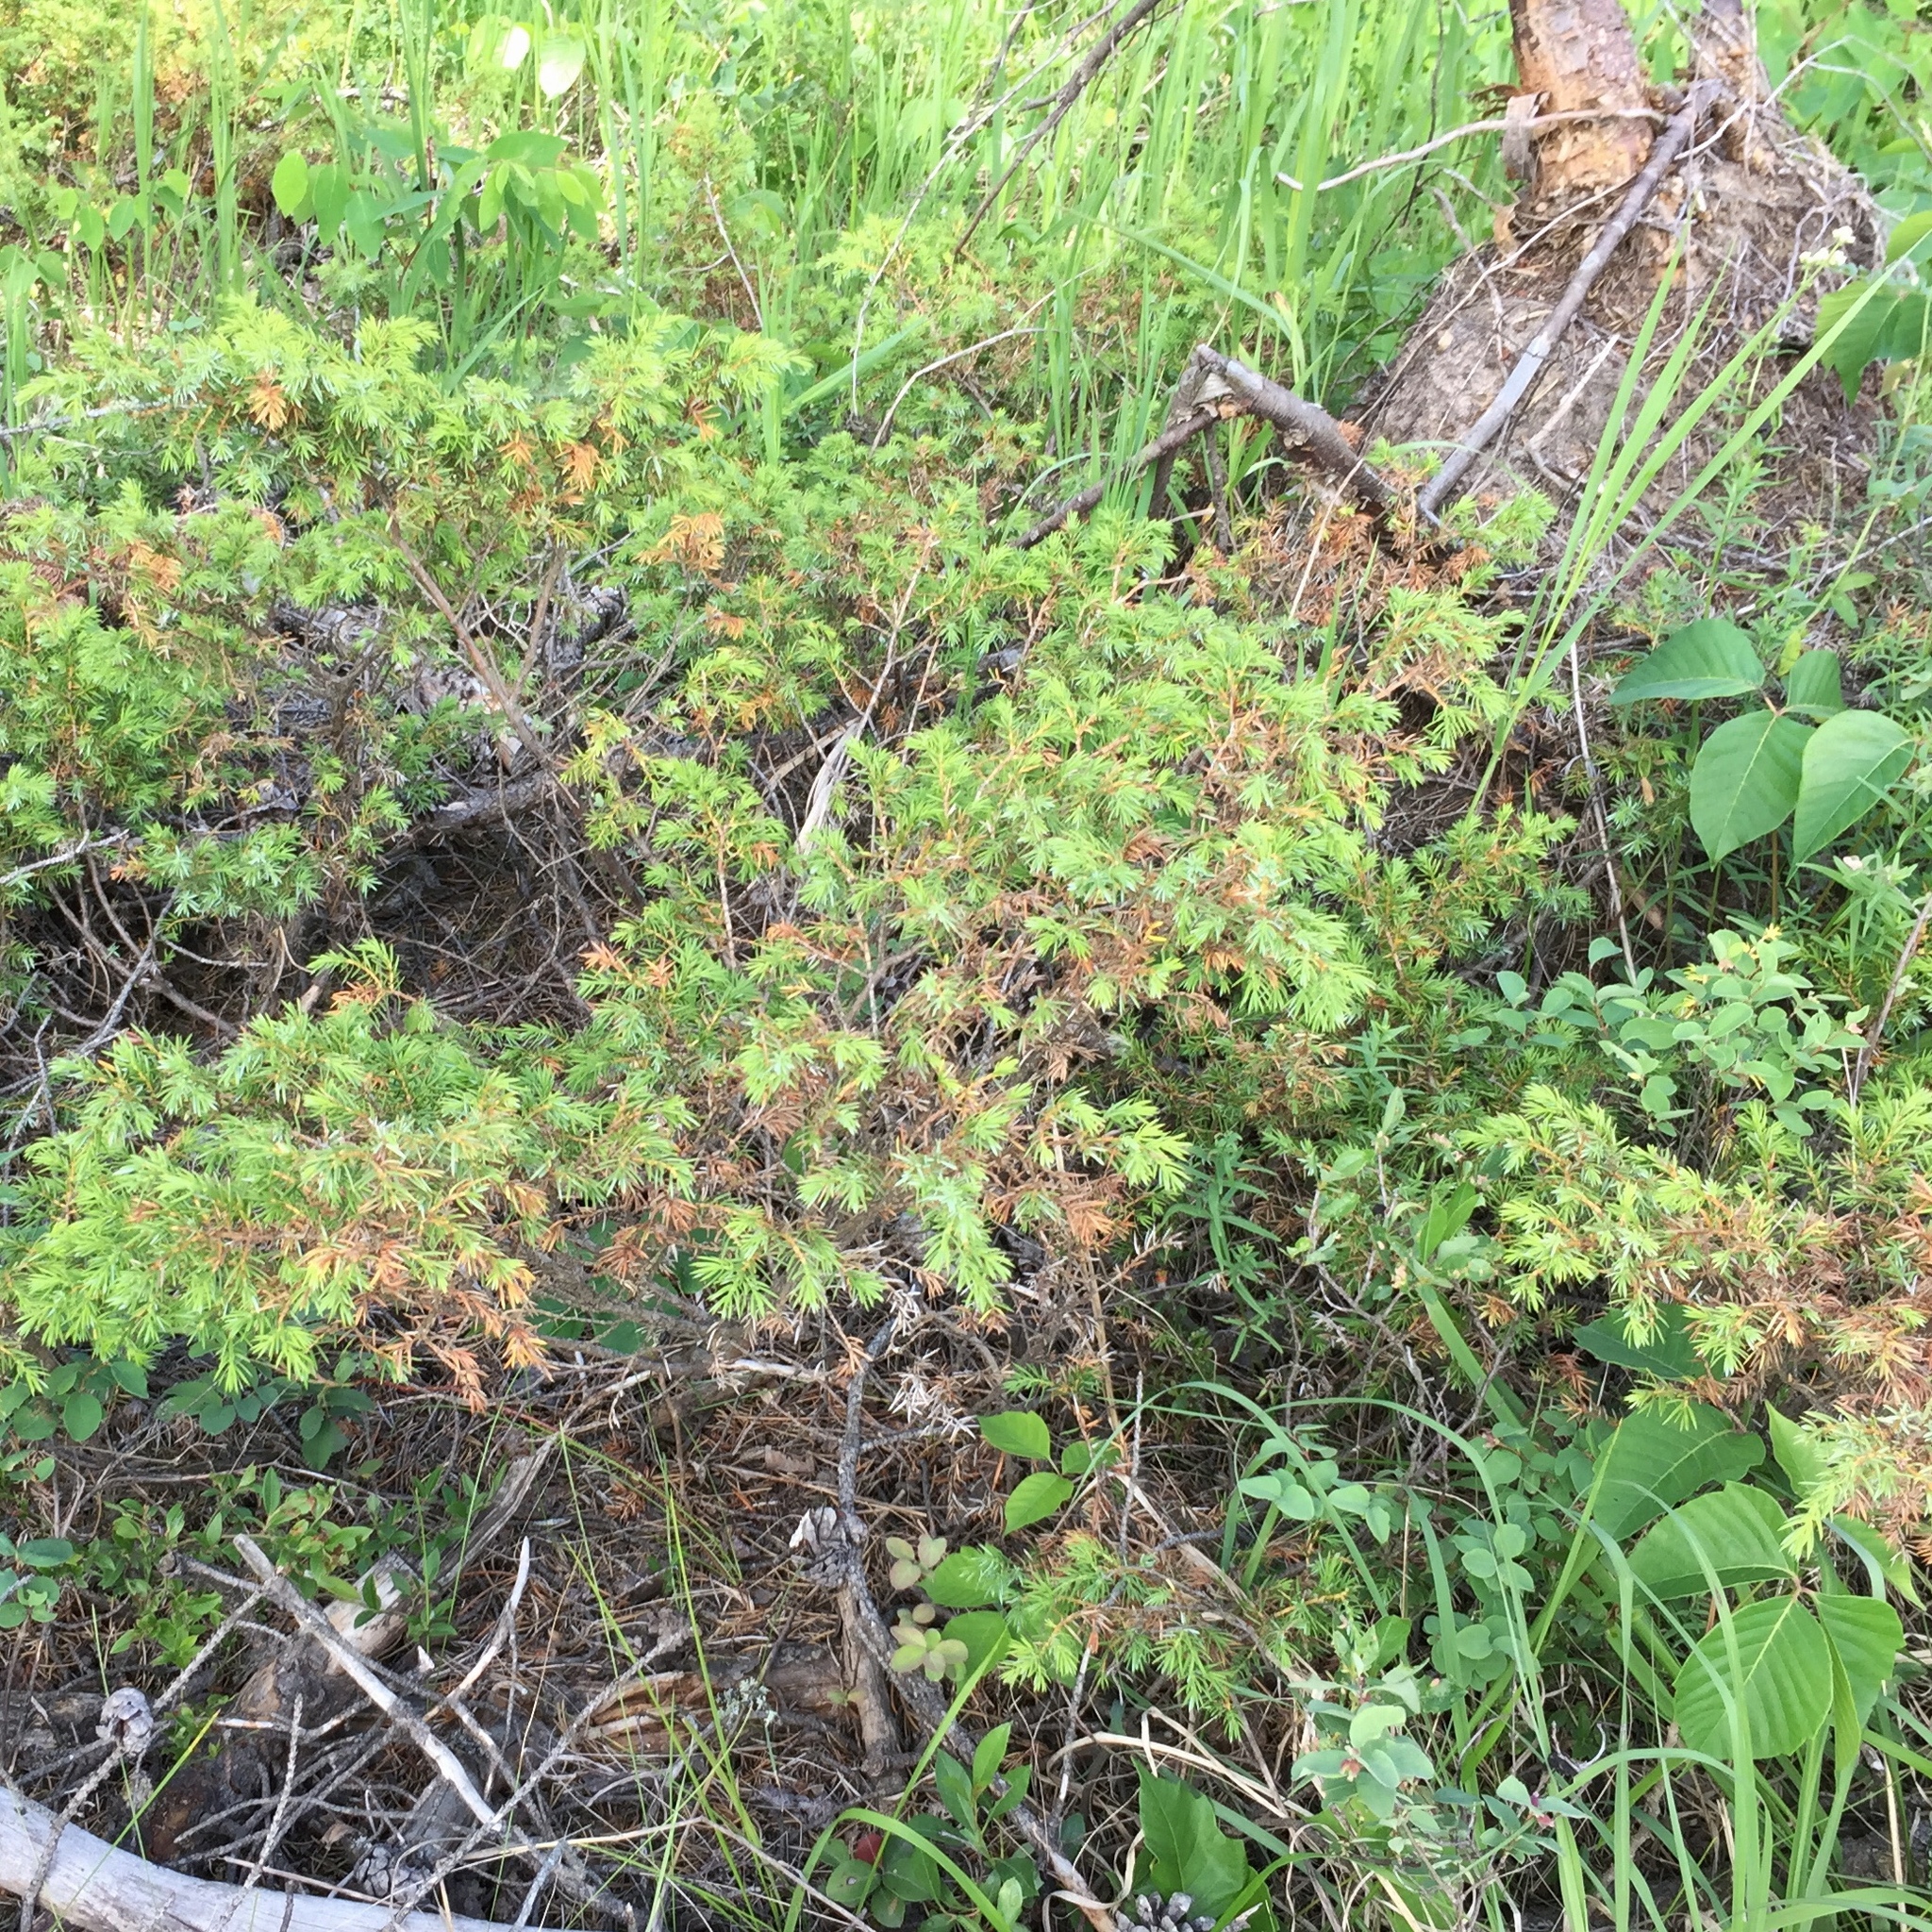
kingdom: Plantae
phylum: Tracheophyta
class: Pinopsida
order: Pinales
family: Cupressaceae
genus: Juniperus
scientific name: Juniperus communis
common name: Common juniper
